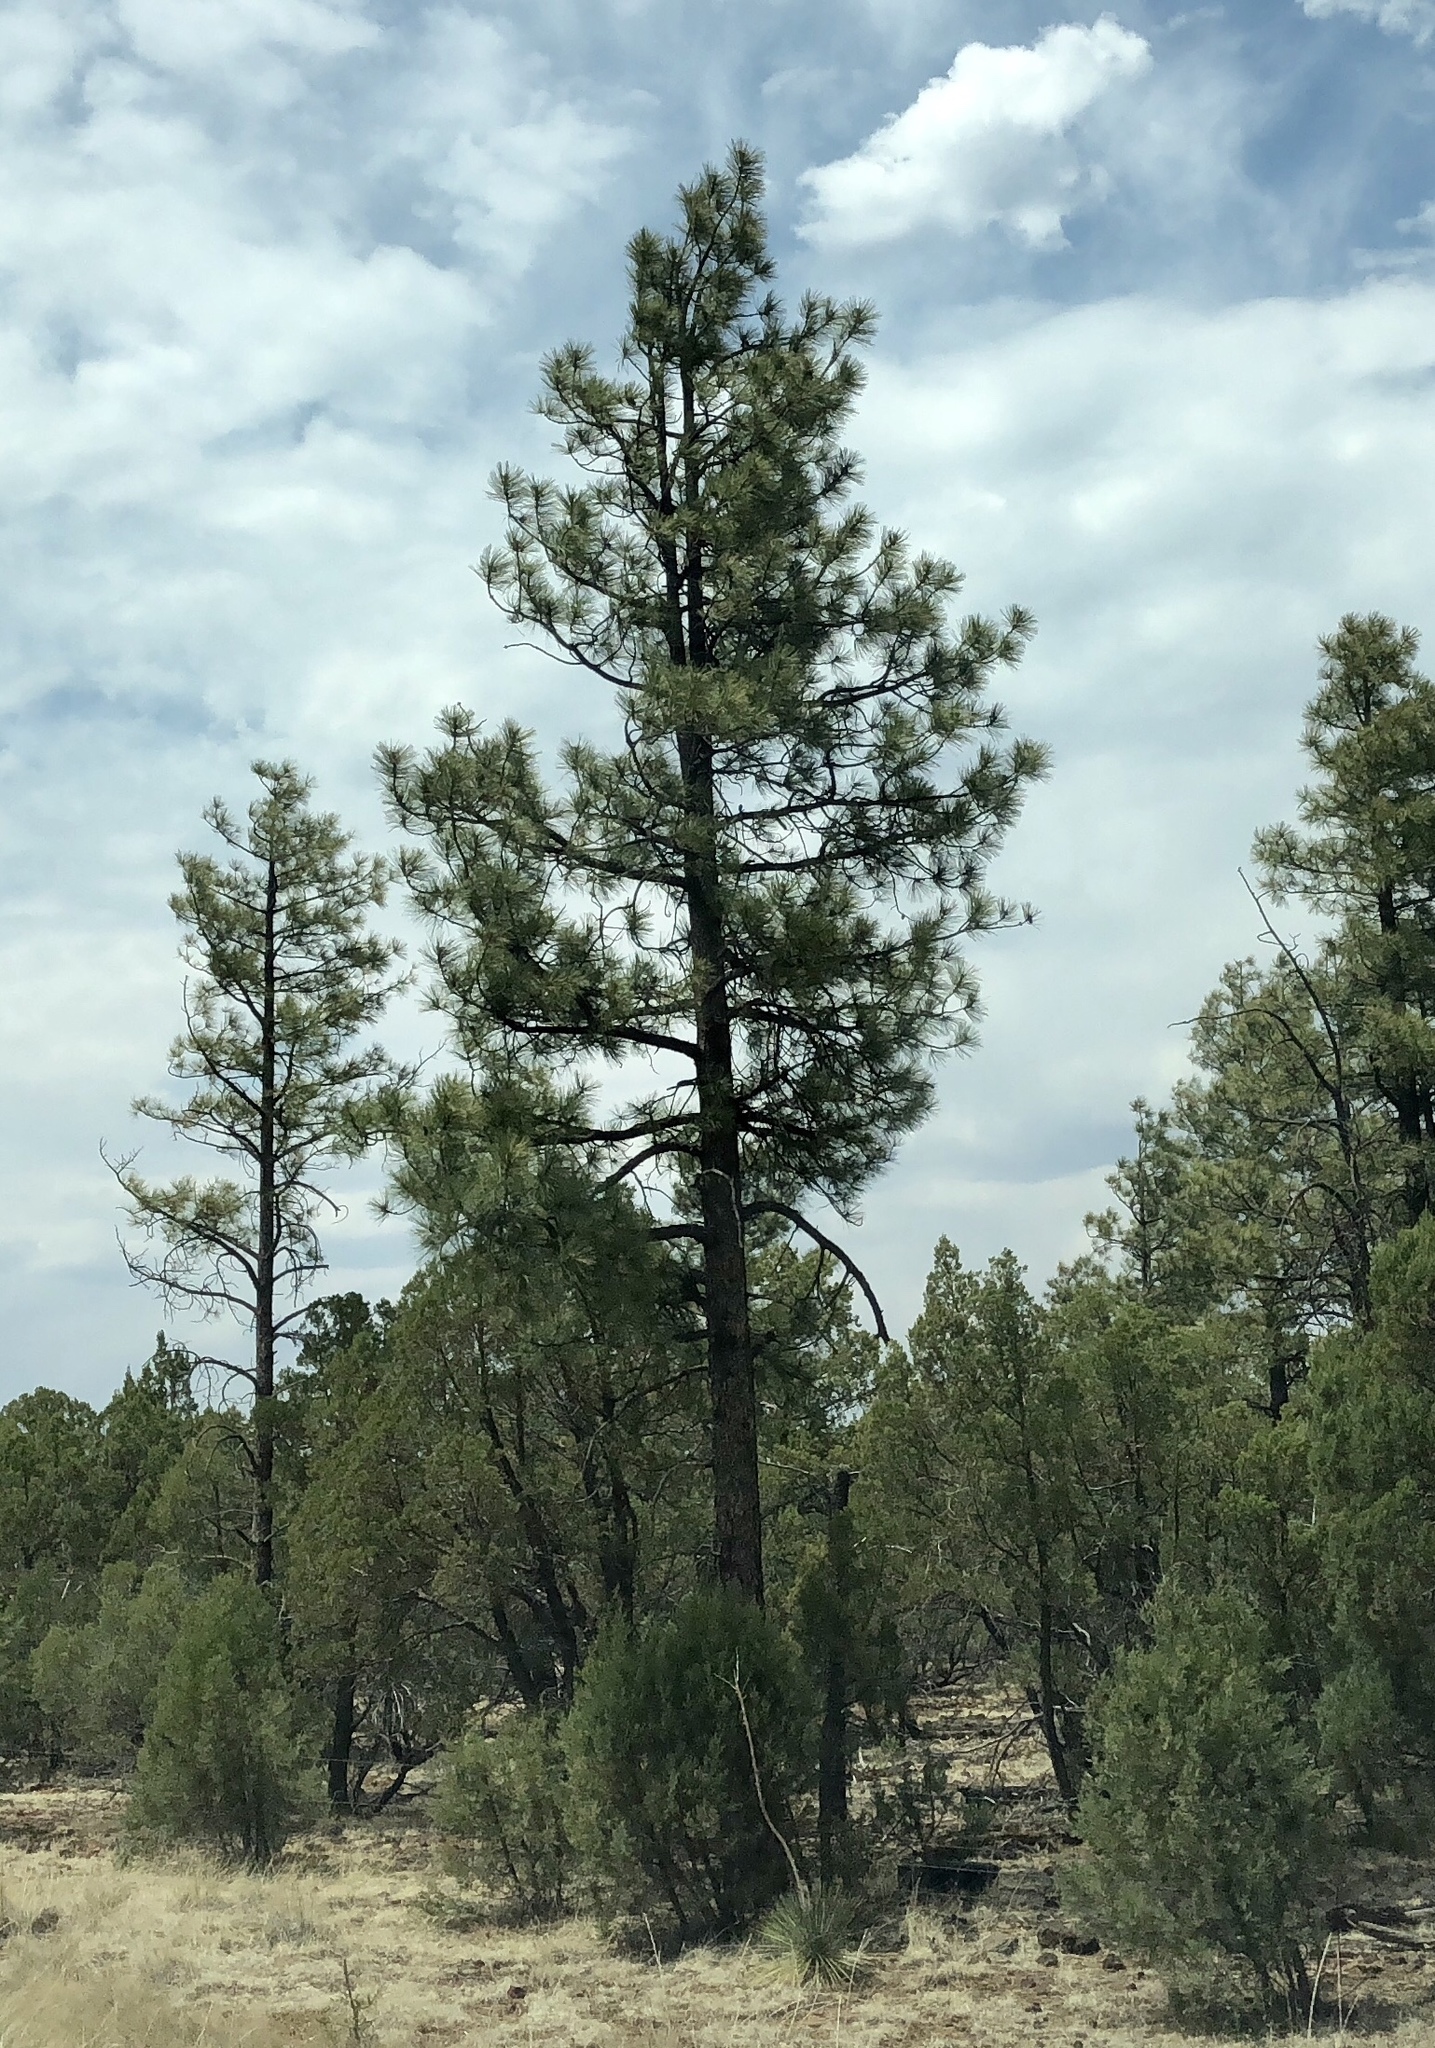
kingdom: Plantae
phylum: Tracheophyta
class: Pinopsida
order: Pinales
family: Pinaceae
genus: Pinus
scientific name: Pinus ponderosa
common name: Western yellow-pine
